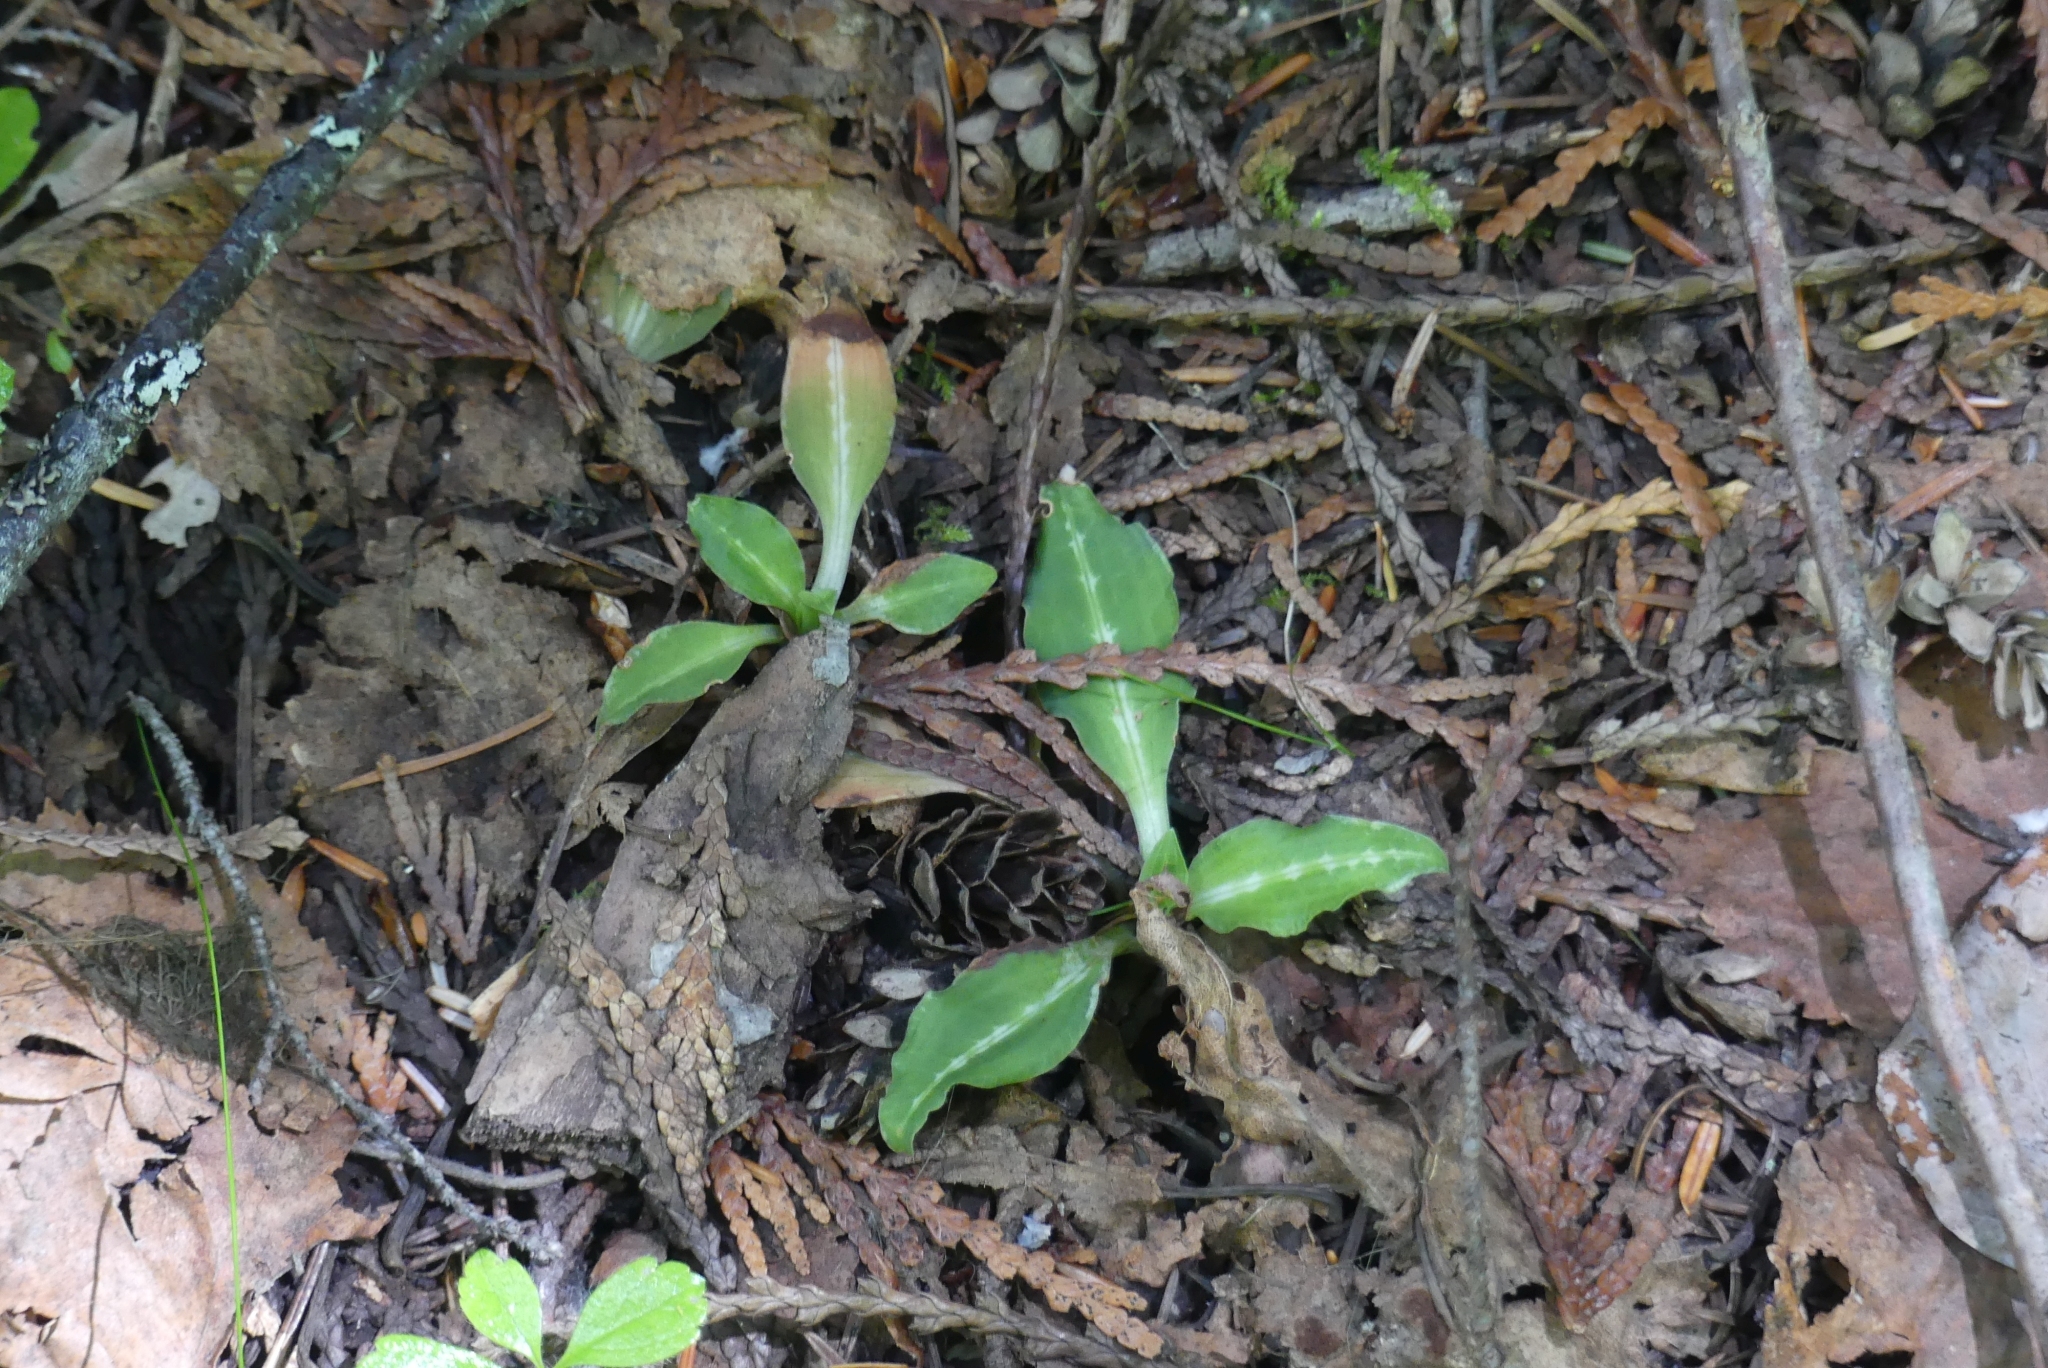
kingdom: Plantae
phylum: Tracheophyta
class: Liliopsida
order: Asparagales
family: Orchidaceae
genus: Goodyera
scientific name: Goodyera oblongifolia
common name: Giant rattlesnake-plantain
